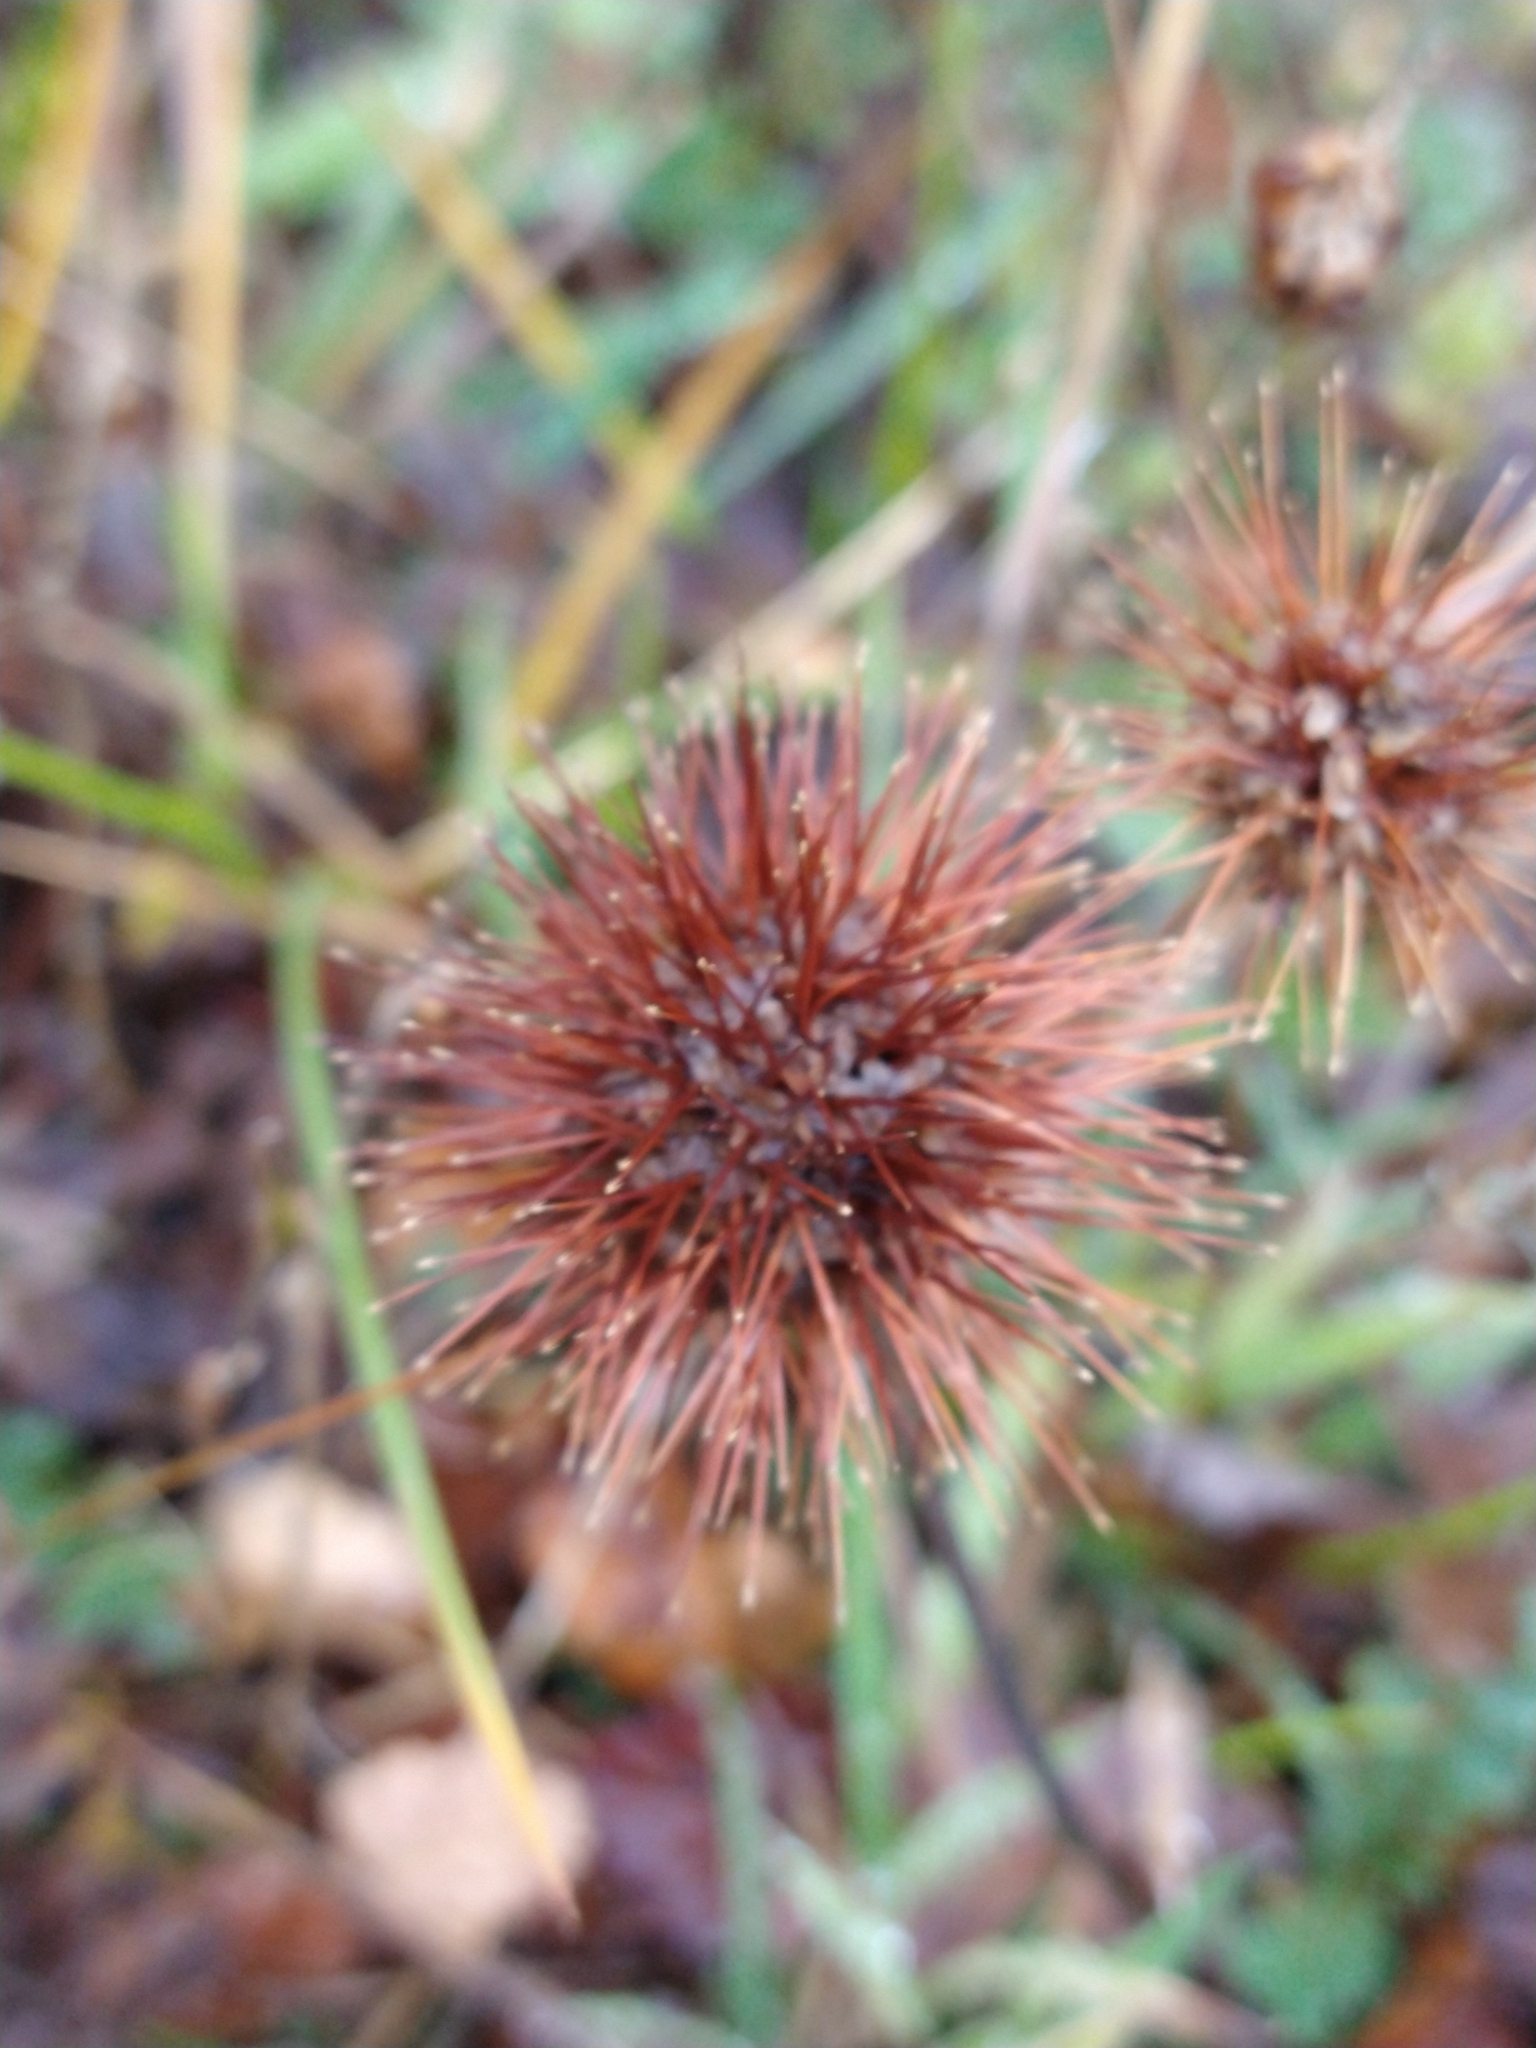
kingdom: Plantae
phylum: Tracheophyta
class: Magnoliopsida
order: Rosales
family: Rosaceae
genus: Acaena
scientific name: Acaena magellanica
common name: New zealand burr
